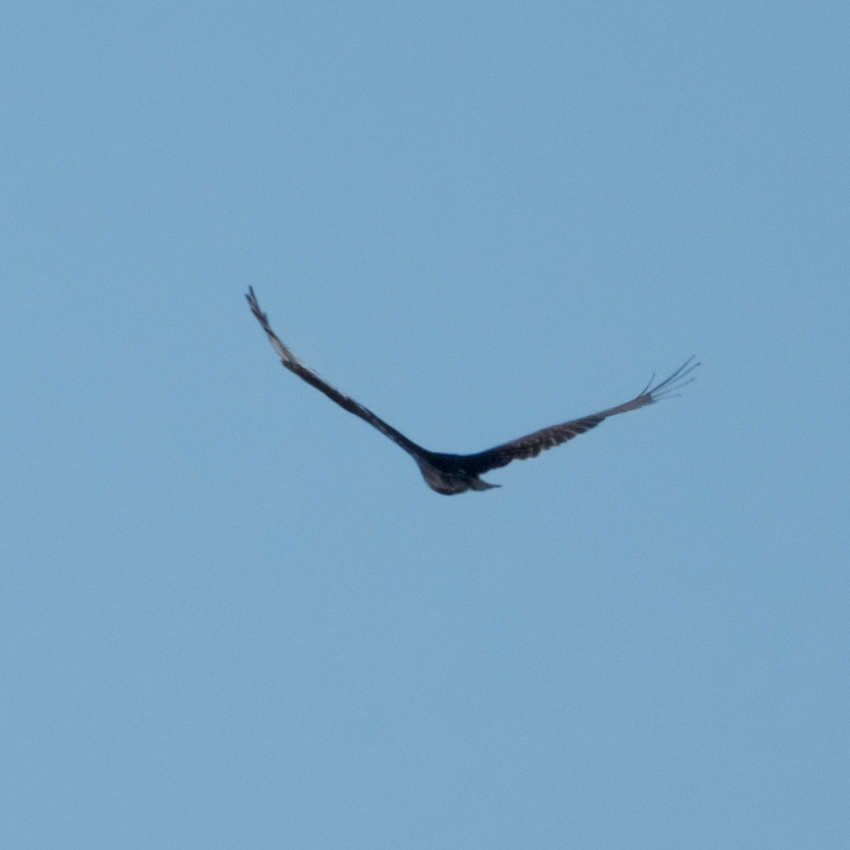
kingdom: Animalia
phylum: Chordata
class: Aves
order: Accipitriformes
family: Cathartidae
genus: Cathartes
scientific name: Cathartes aura
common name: Turkey vulture
